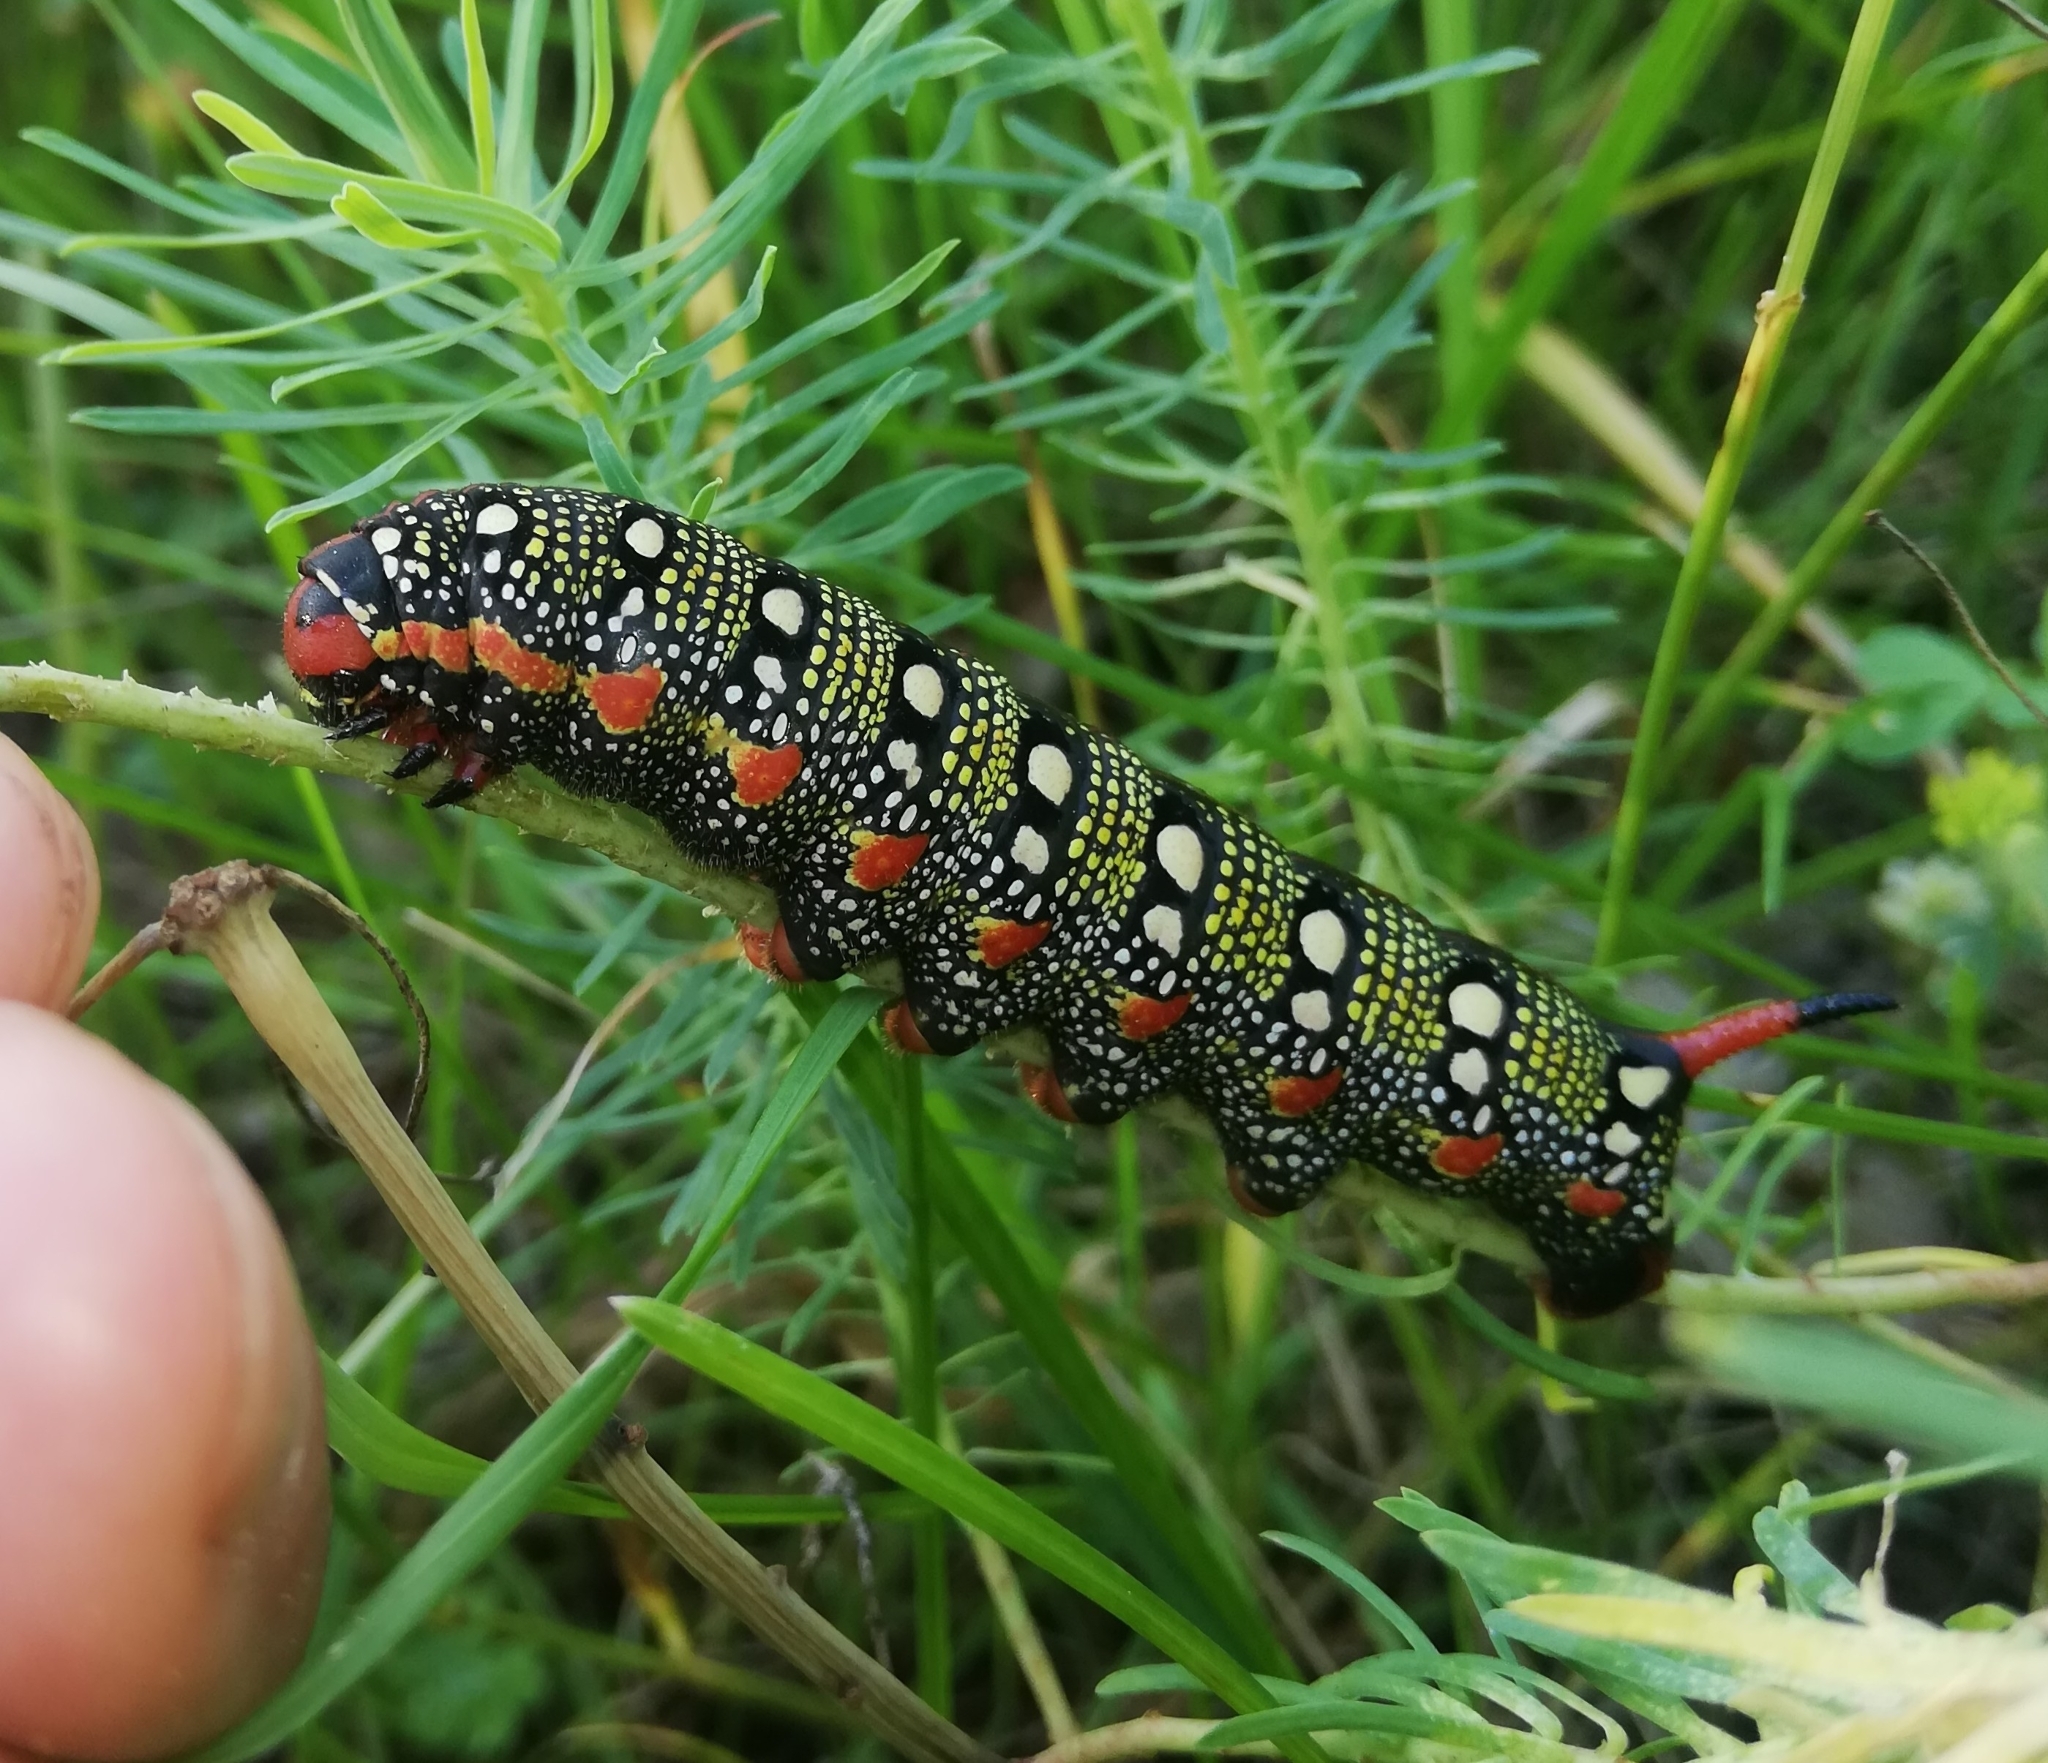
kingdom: Animalia
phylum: Arthropoda
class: Insecta
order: Lepidoptera
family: Sphingidae
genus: Hyles
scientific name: Hyles euphorbiae
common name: Spurge hawk-moth
